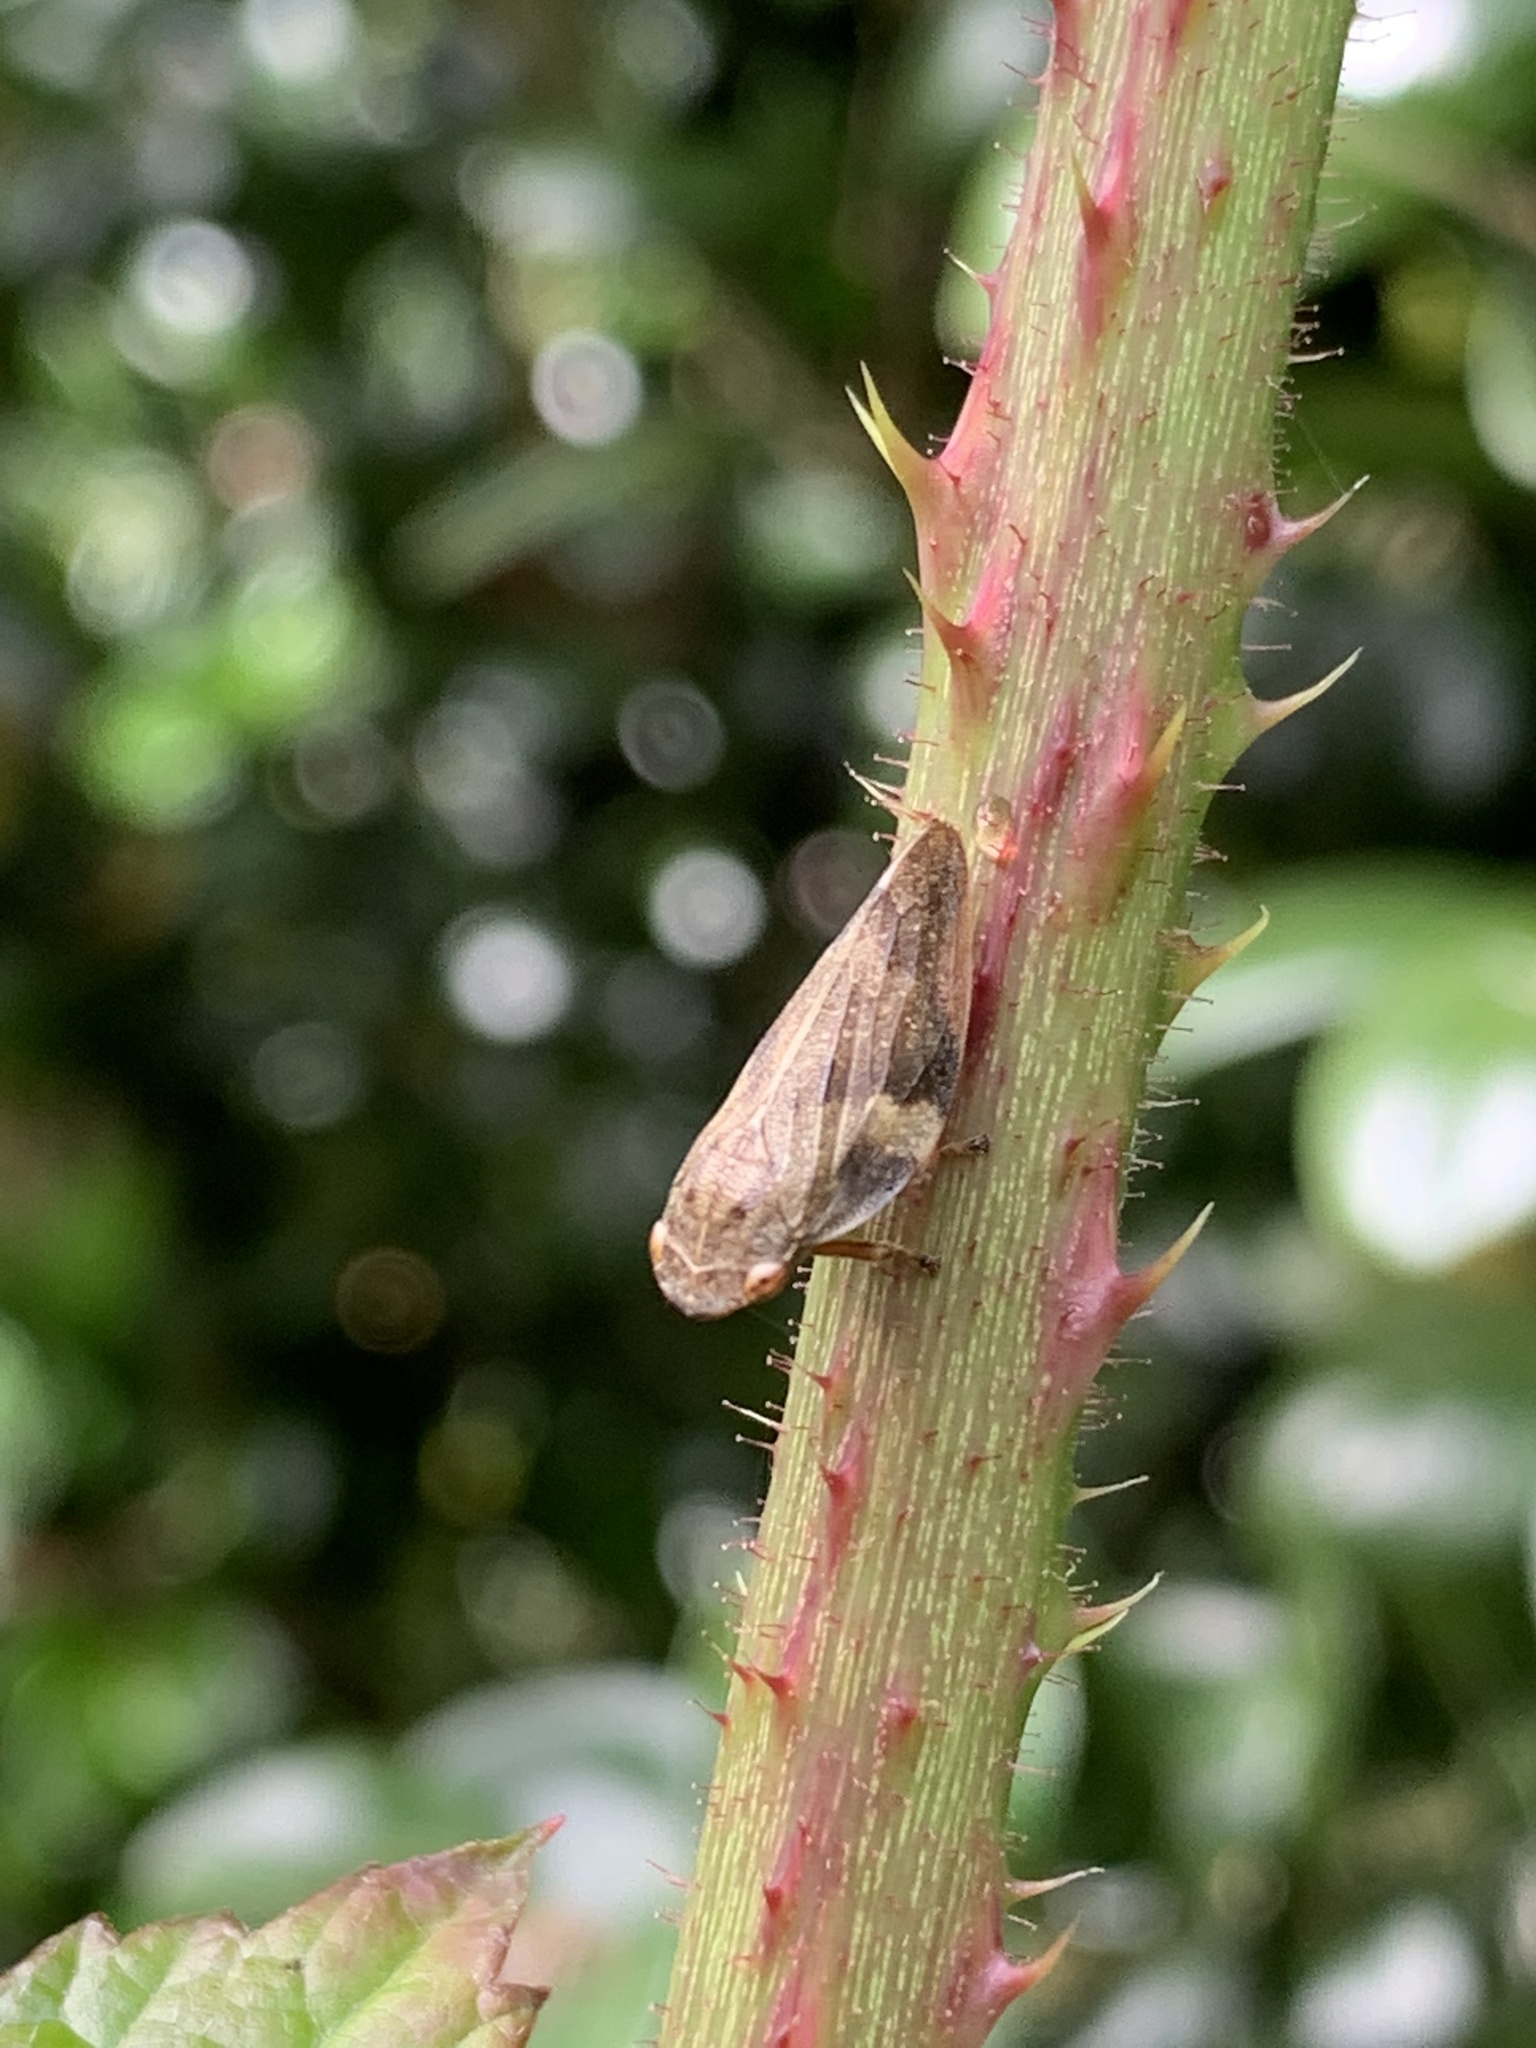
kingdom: Animalia
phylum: Arthropoda
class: Insecta
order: Hemiptera
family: Aphrophoridae
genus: Aphrophora
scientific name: Aphrophora alni
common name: European alder spittlebug
